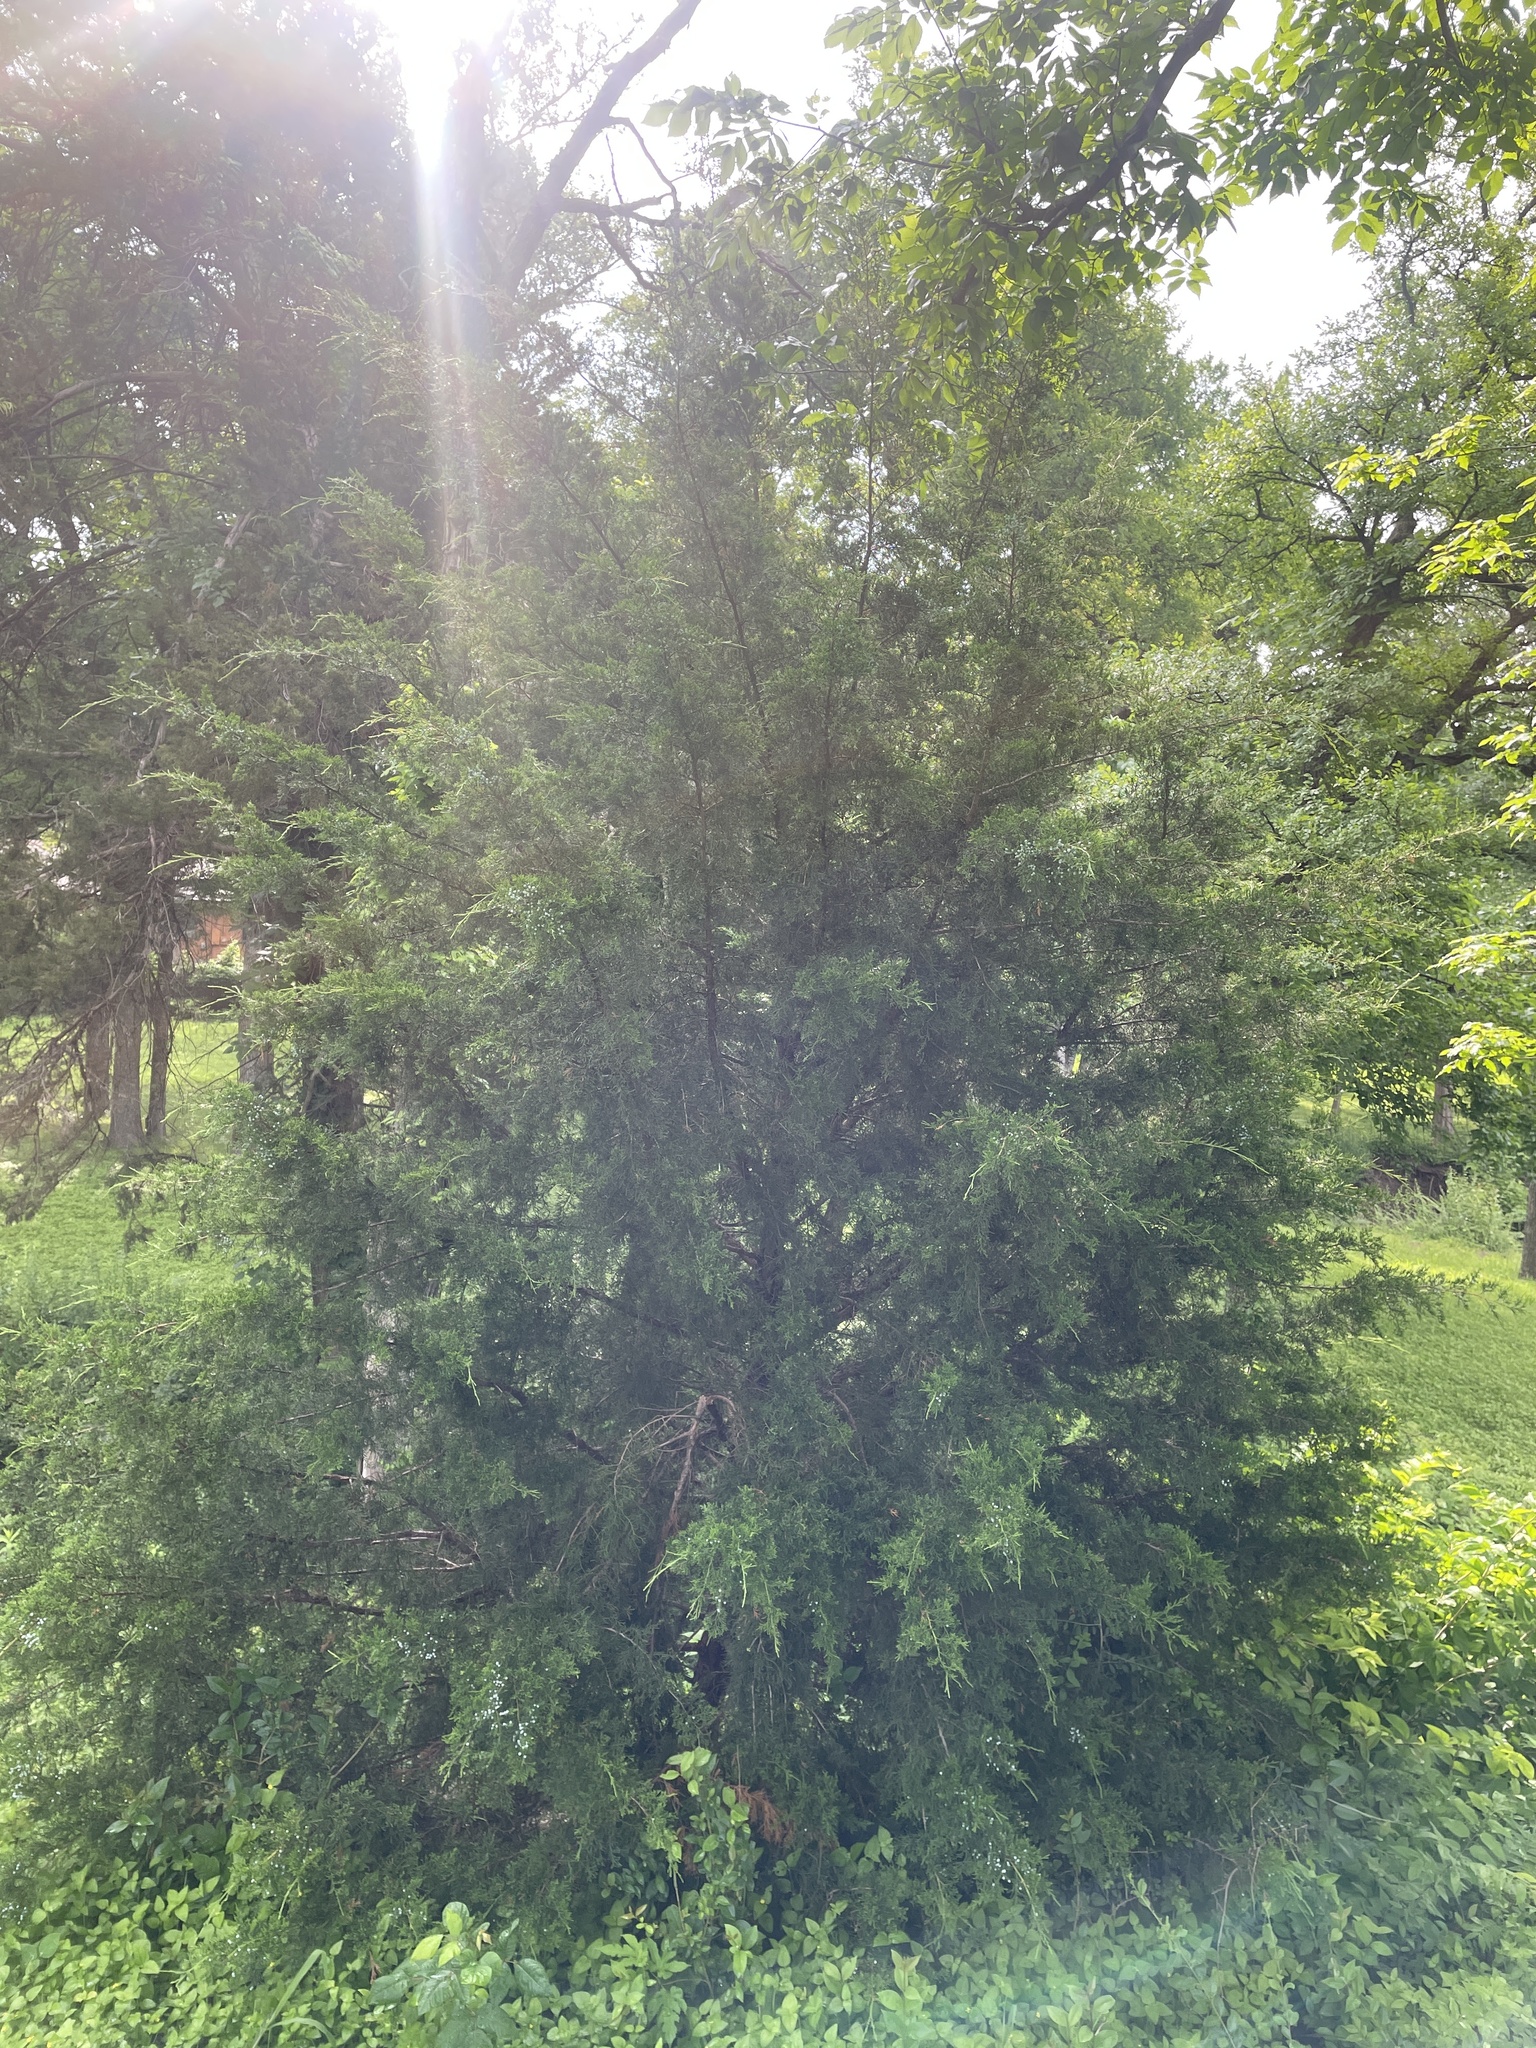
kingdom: Plantae
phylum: Tracheophyta
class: Pinopsida
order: Pinales
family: Cupressaceae
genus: Juniperus
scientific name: Juniperus virginiana
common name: Red juniper
